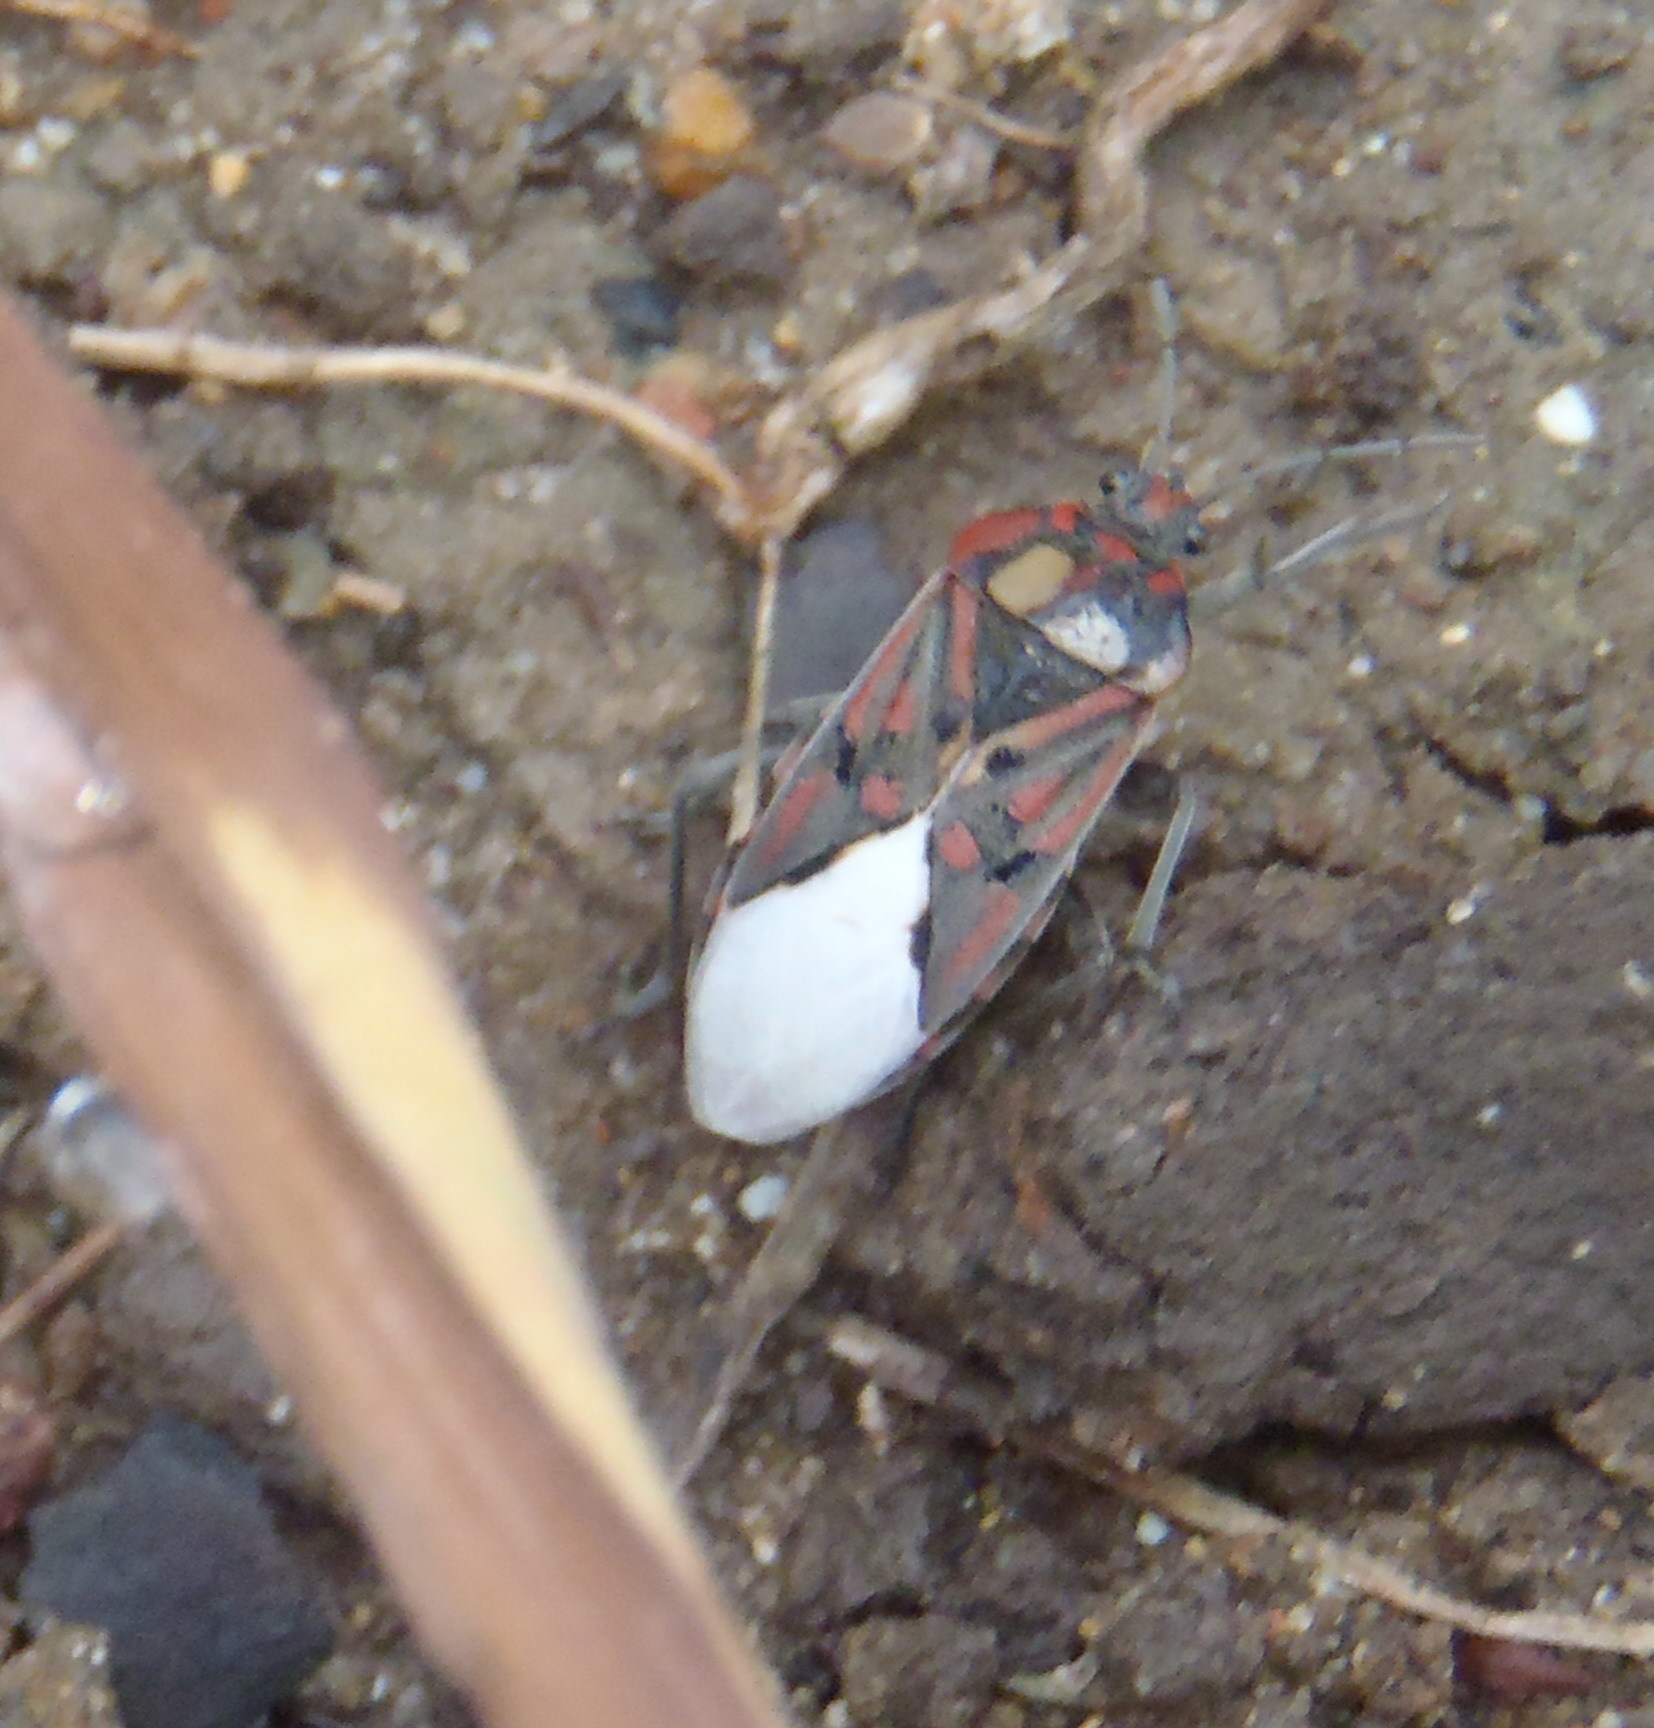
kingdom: Animalia
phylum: Arthropoda
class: Insecta
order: Hemiptera
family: Lygaeidae
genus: Spilostethus
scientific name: Spilostethus pandurus
